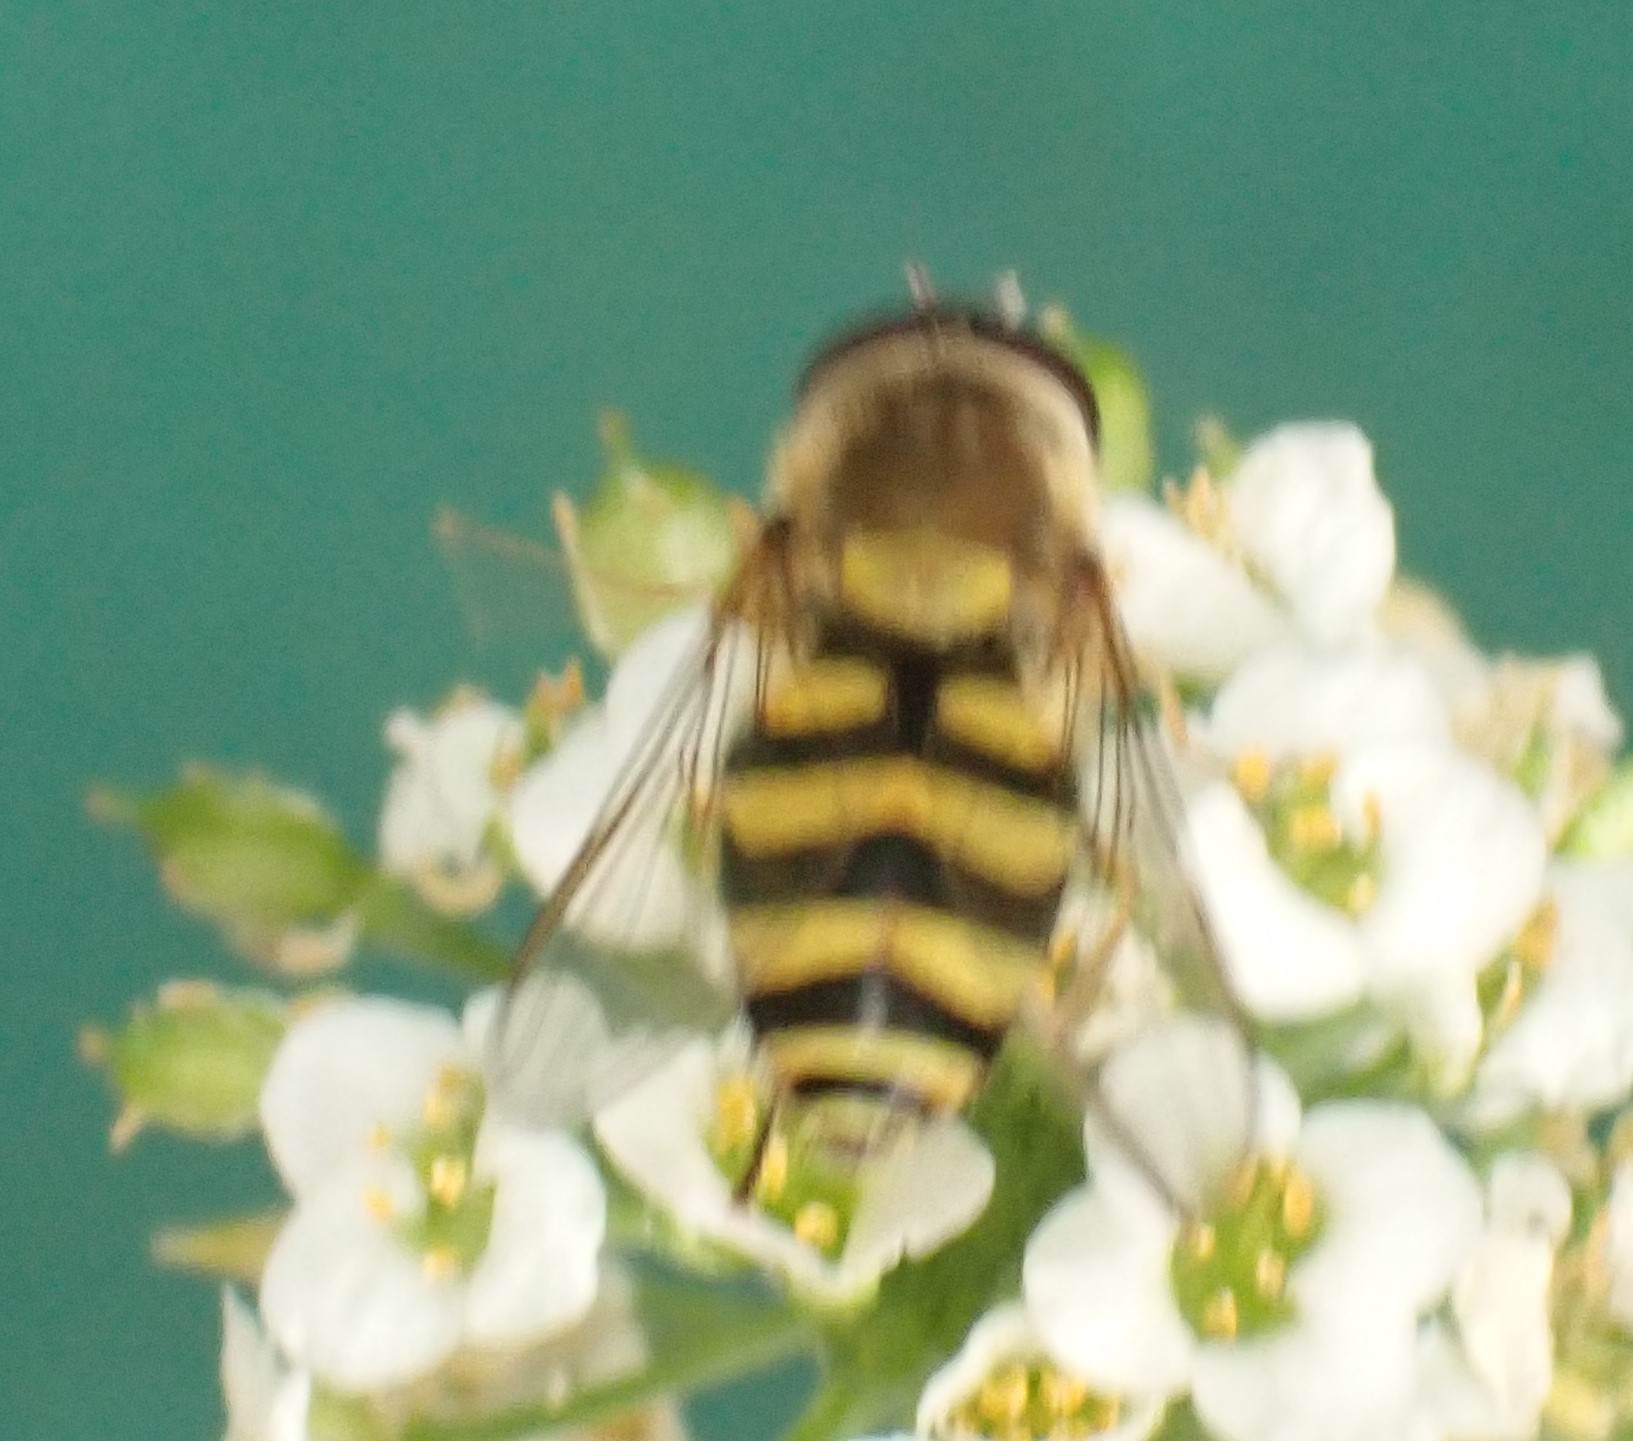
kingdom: Animalia
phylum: Arthropoda
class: Insecta
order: Diptera
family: Syrphidae
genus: Syrphus
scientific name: Syrphus
